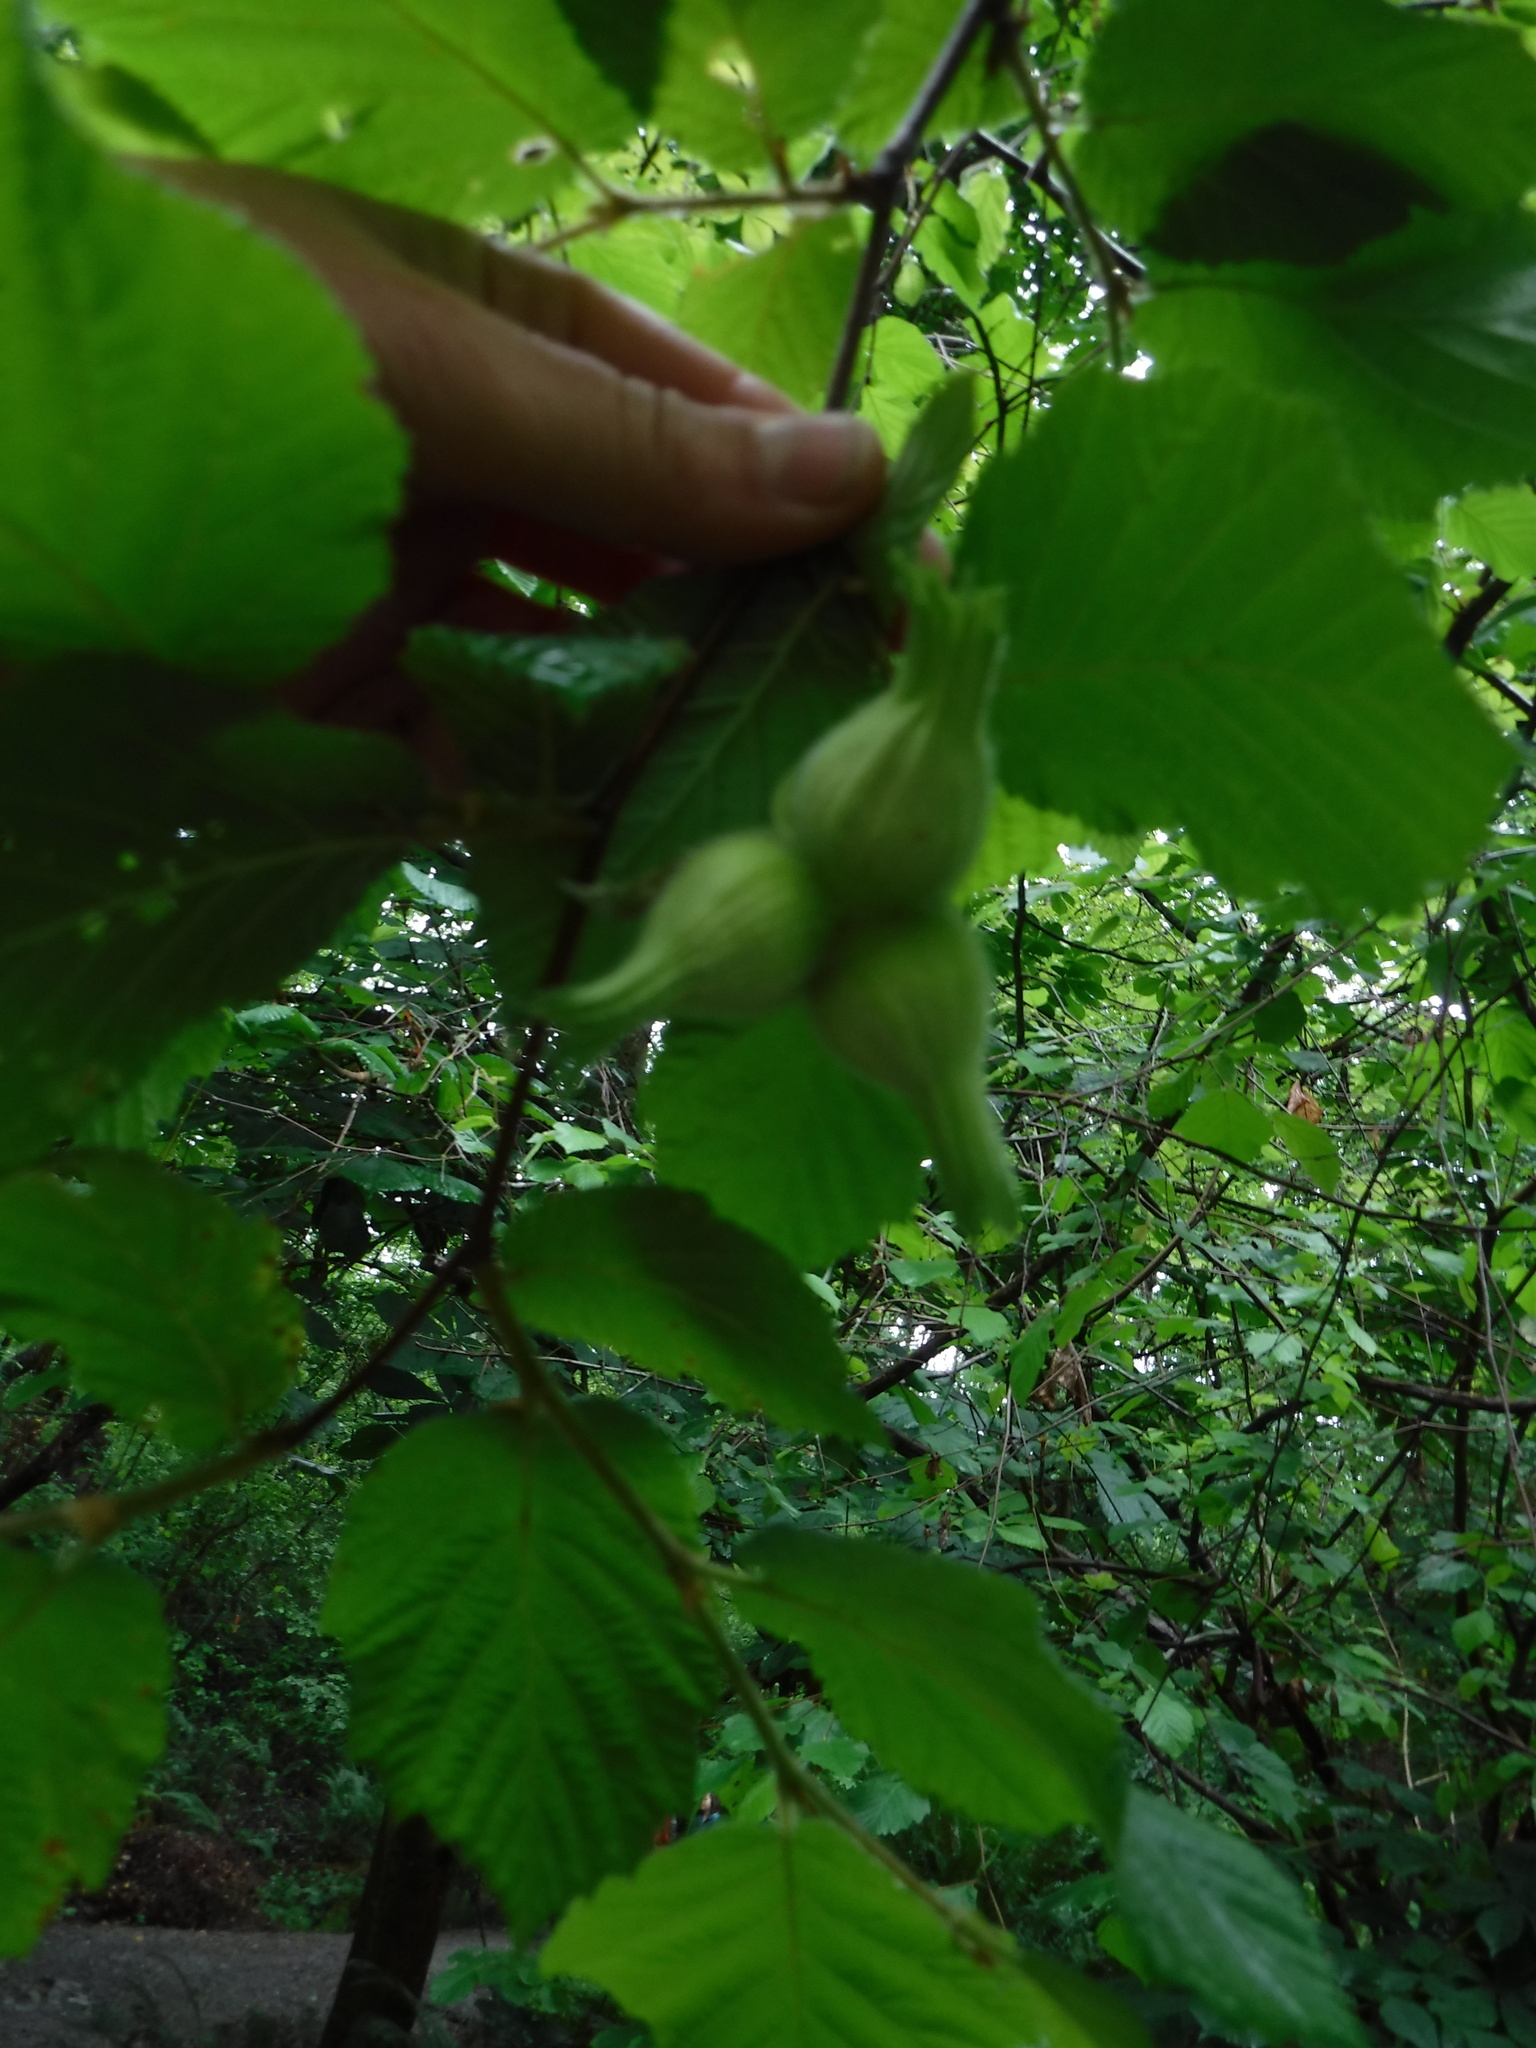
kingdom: Plantae
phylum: Tracheophyta
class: Magnoliopsida
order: Fagales
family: Betulaceae
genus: Corylus
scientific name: Corylus cornuta
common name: Beaked hazel
